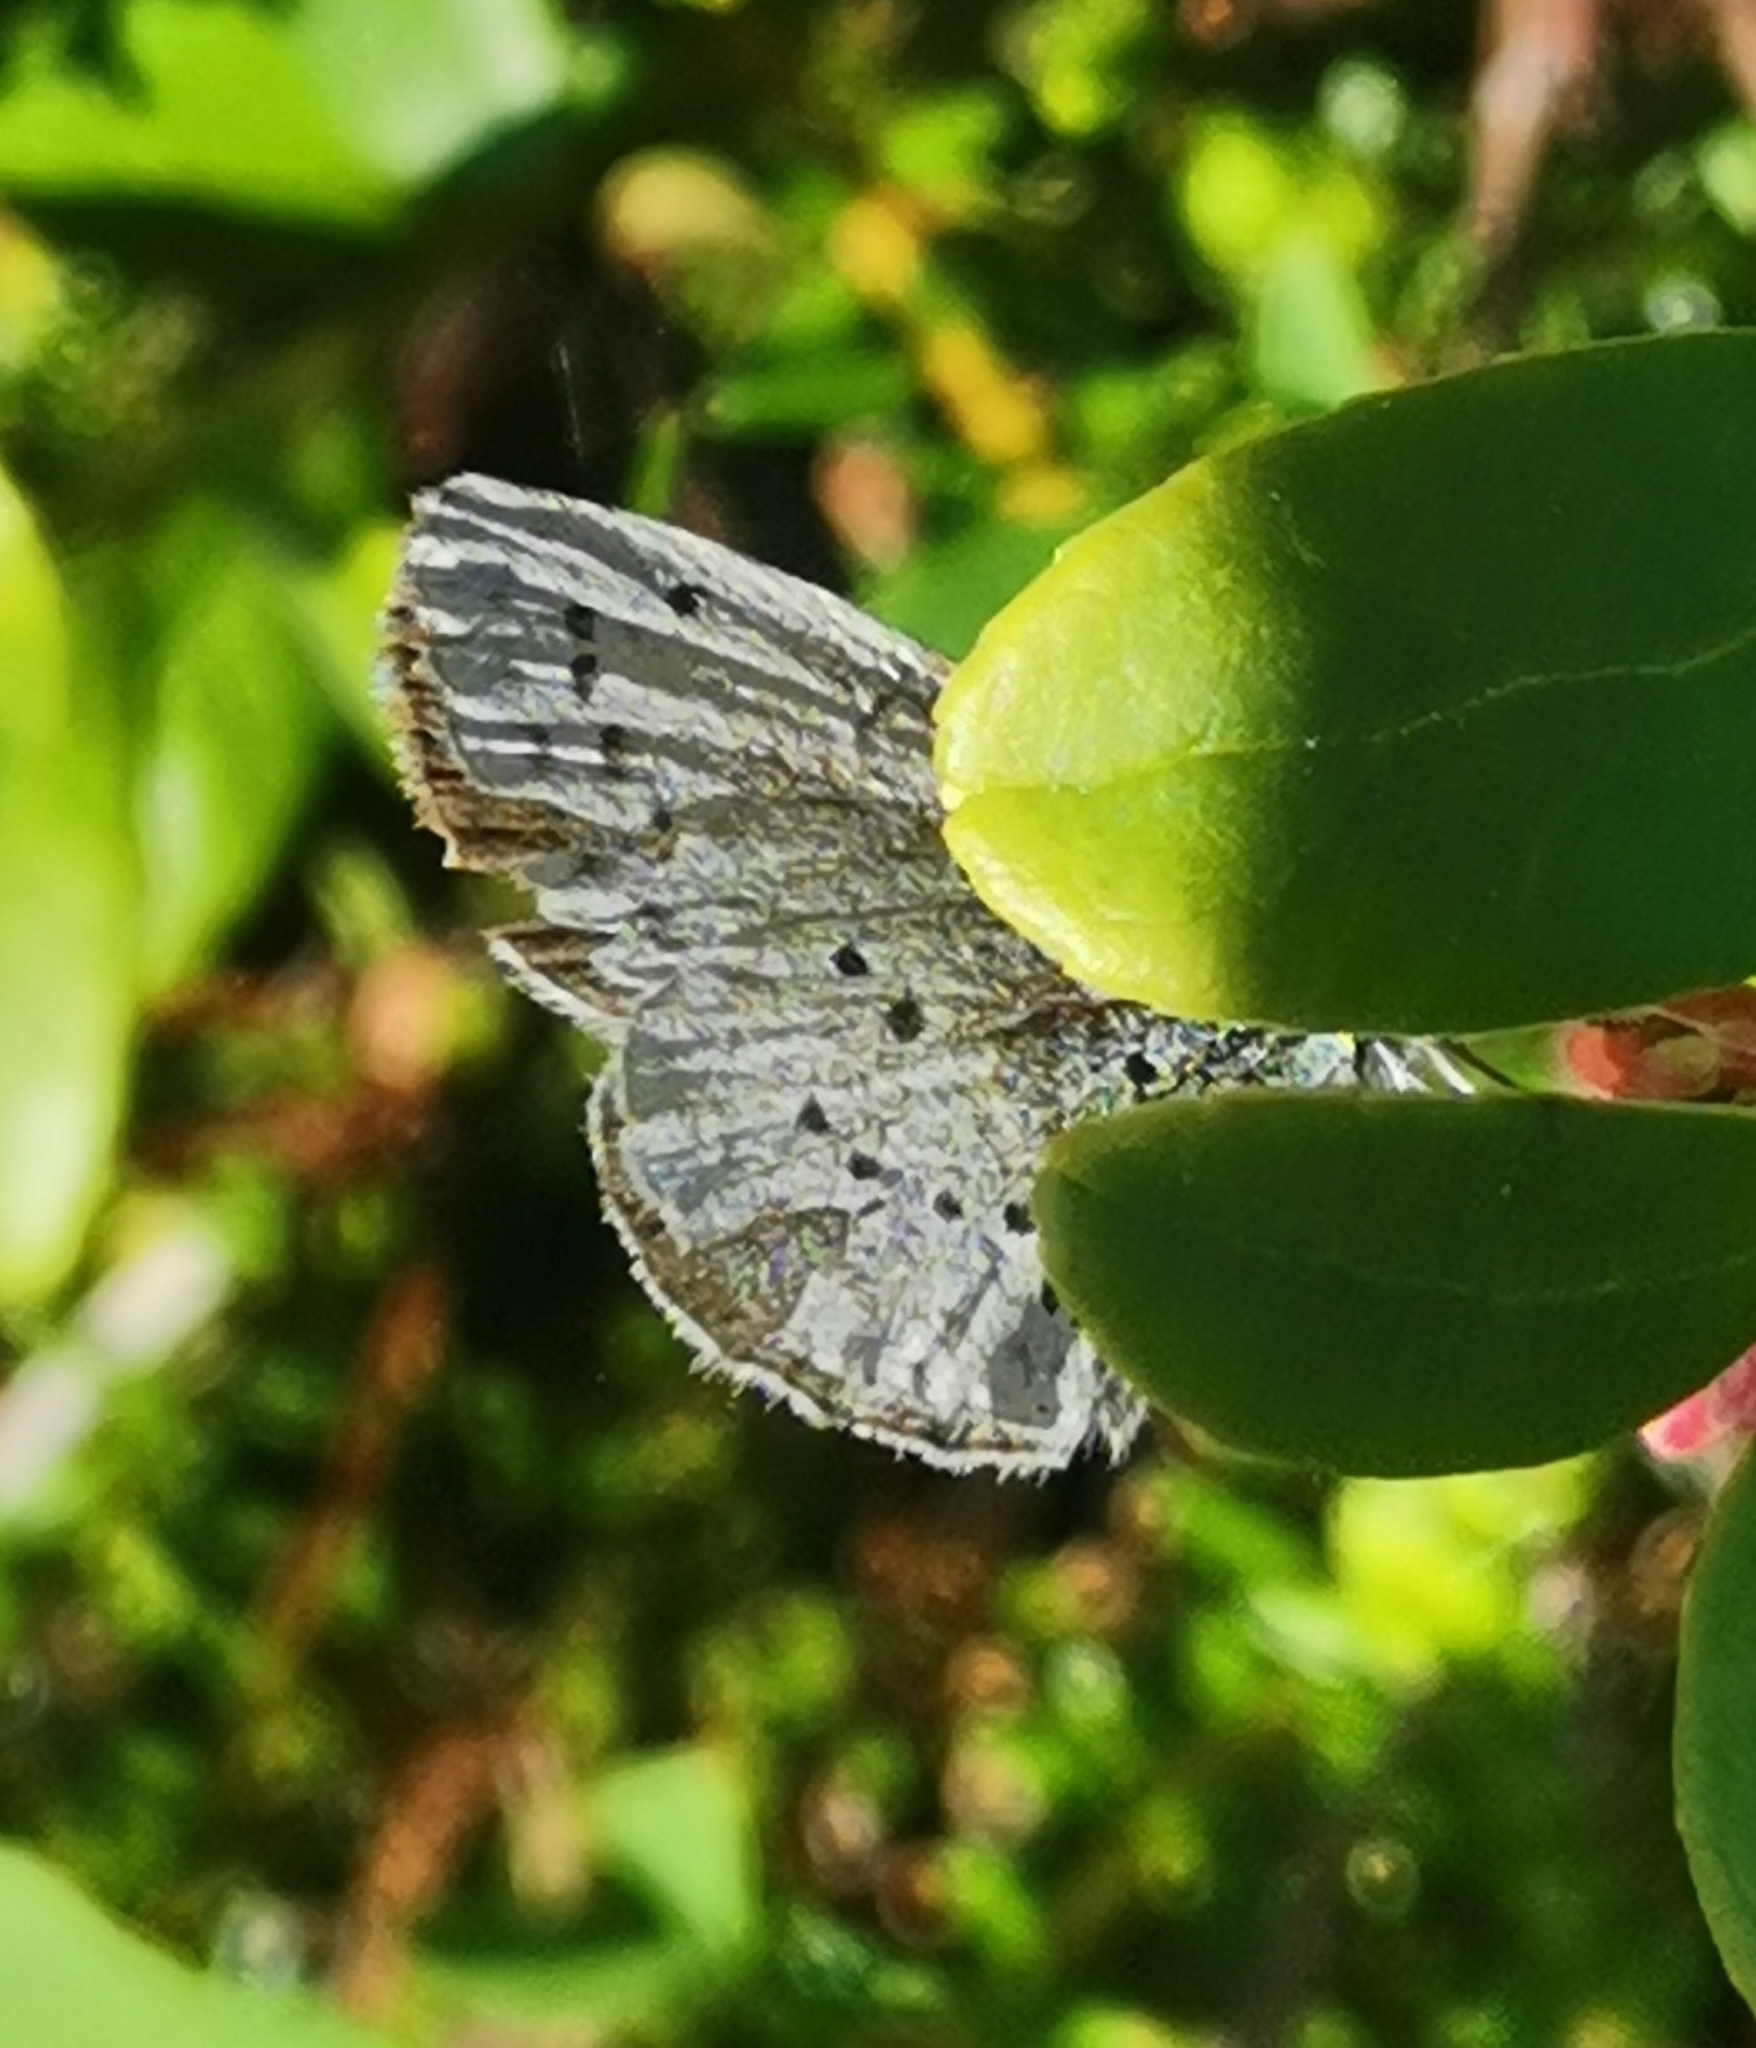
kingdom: Animalia
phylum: Arthropoda
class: Insecta
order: Lepidoptera
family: Lycaenidae
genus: Celastrina
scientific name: Celastrina argiolus
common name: Holly blue
